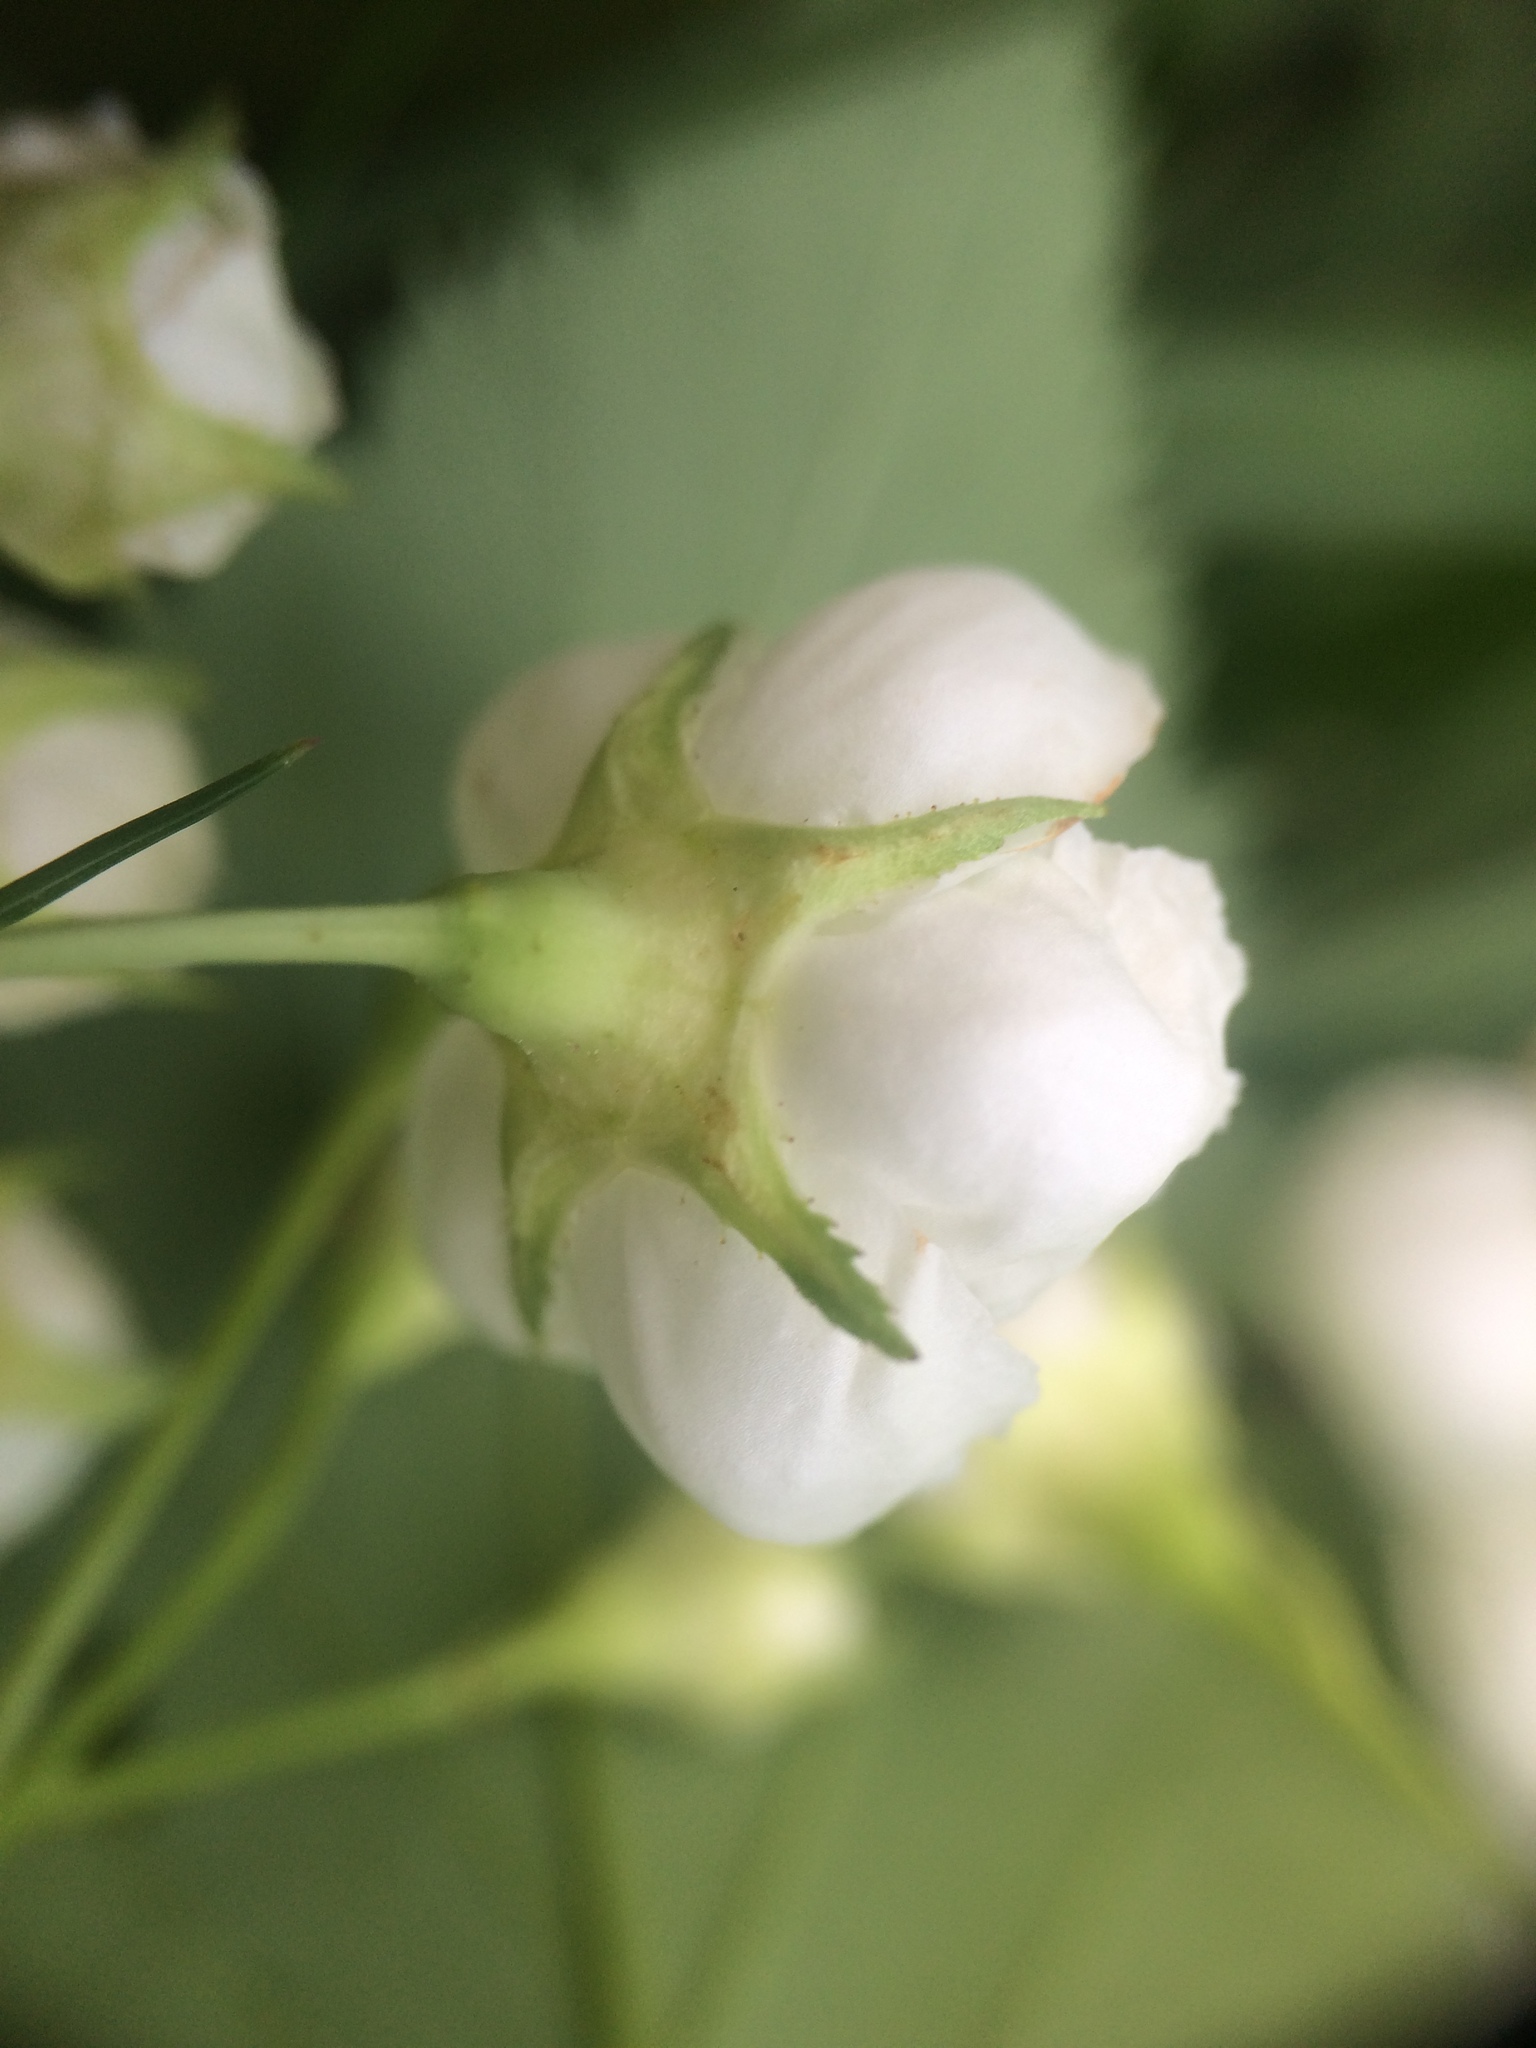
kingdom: Plantae
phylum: Tracheophyta
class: Magnoliopsida
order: Rosales
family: Rosaceae
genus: Crataegus
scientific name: Crataegus scabrida
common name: Rough hawthorn
